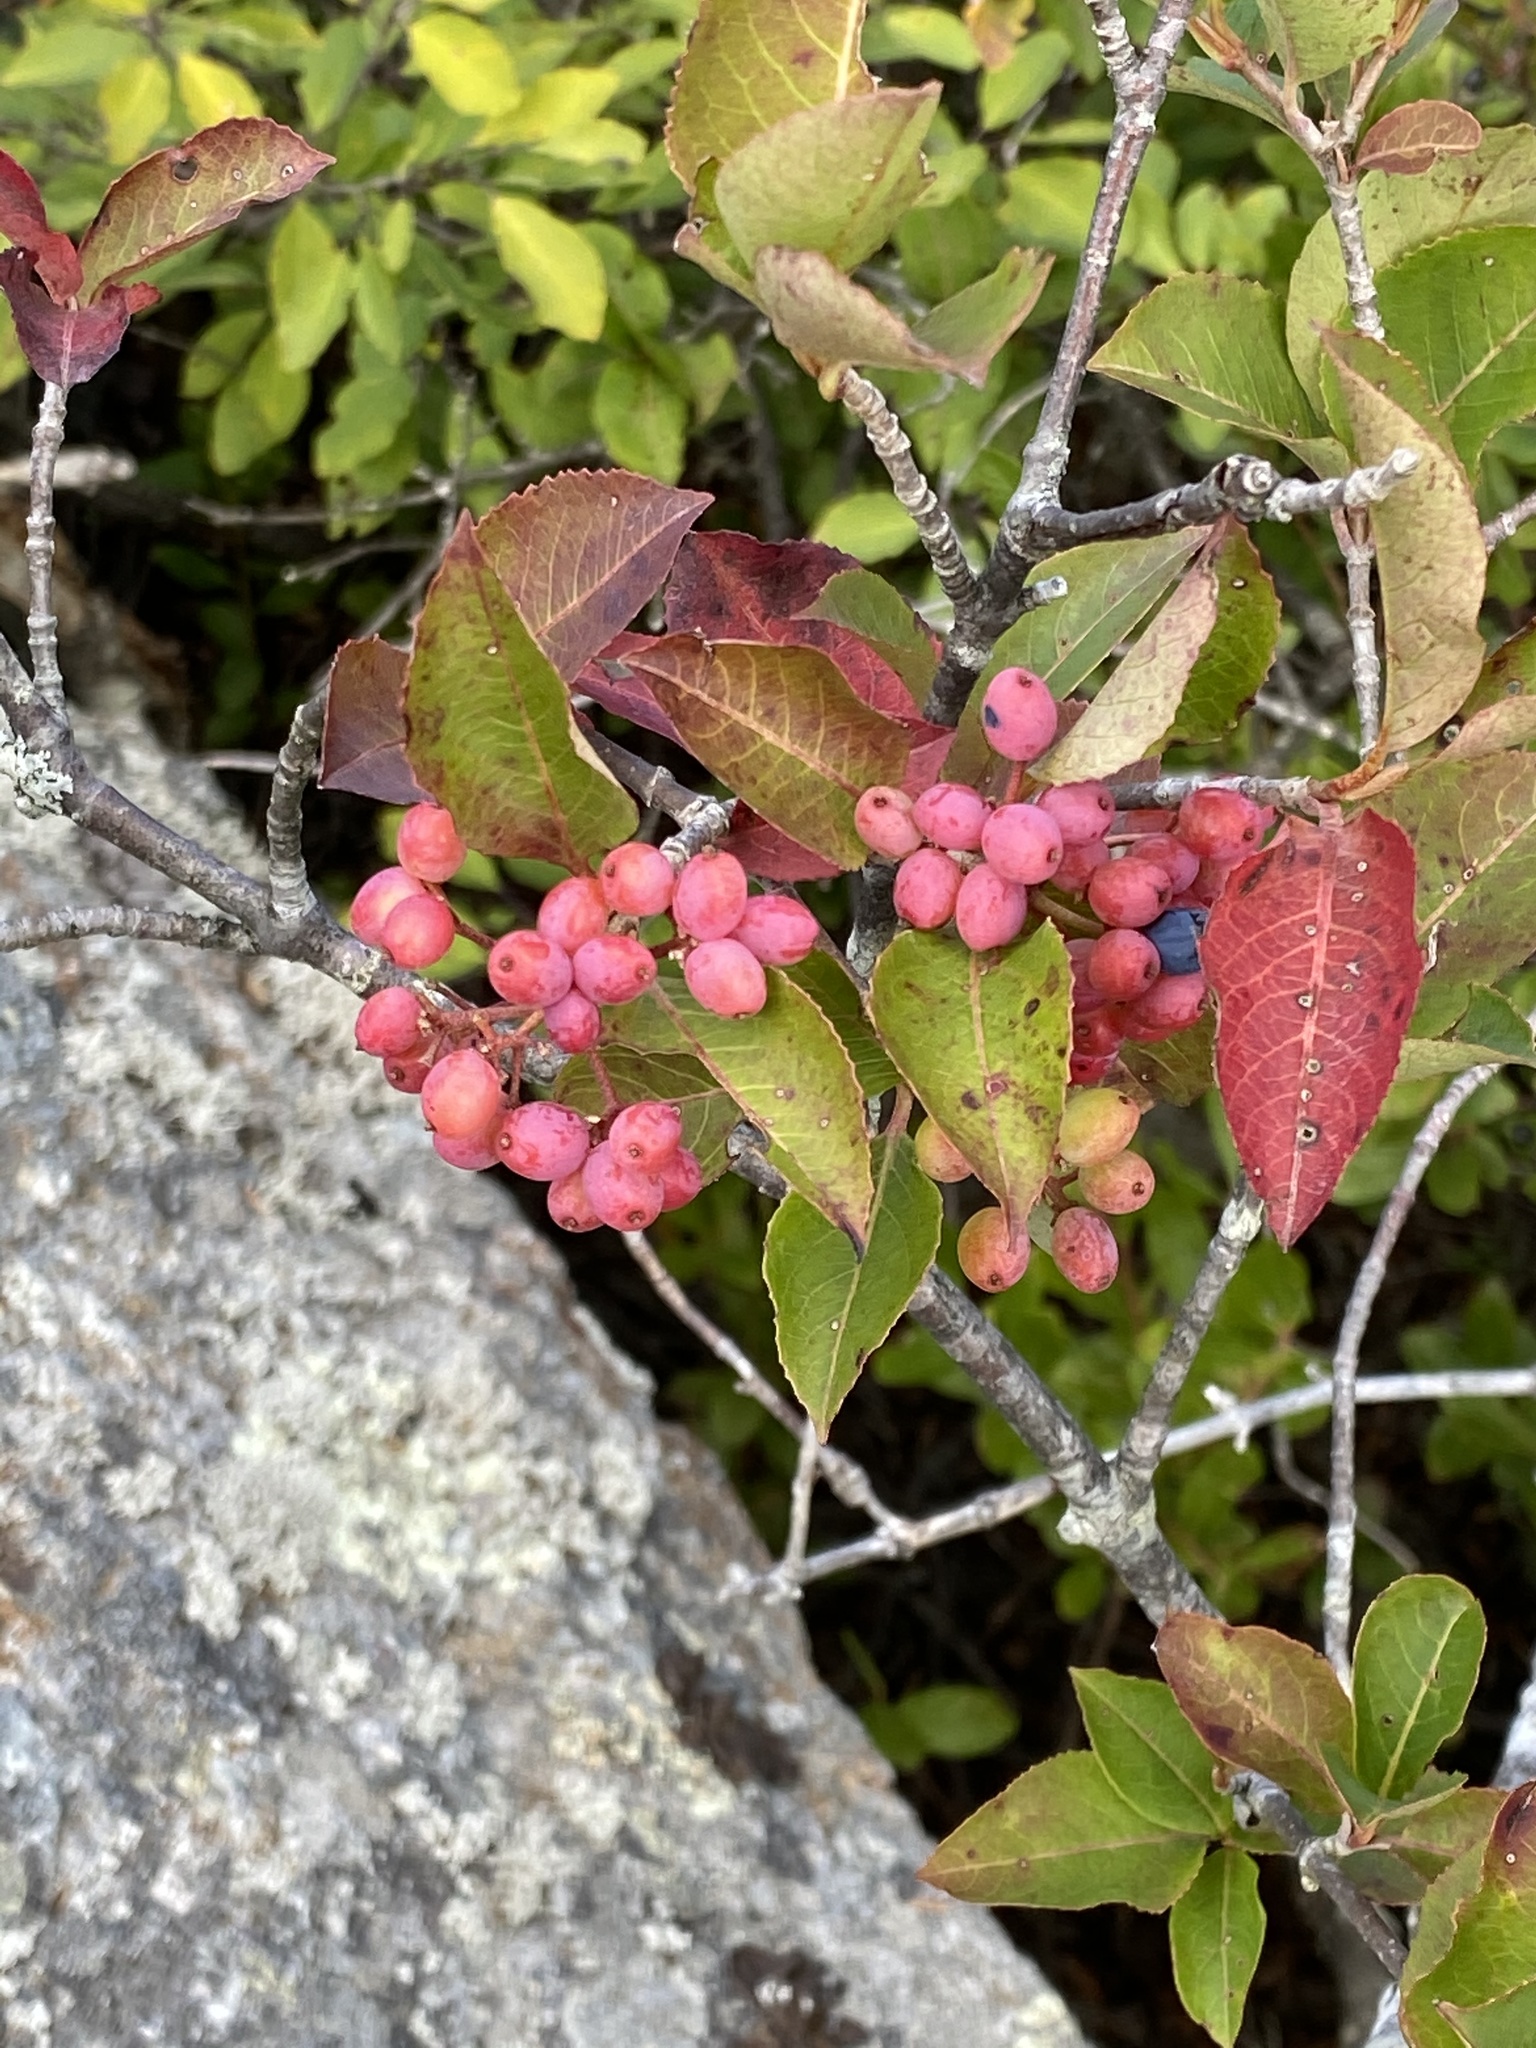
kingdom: Plantae
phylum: Tracheophyta
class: Magnoliopsida
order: Dipsacales
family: Viburnaceae
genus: Viburnum
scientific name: Viburnum cassinoides
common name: Swamp haw
